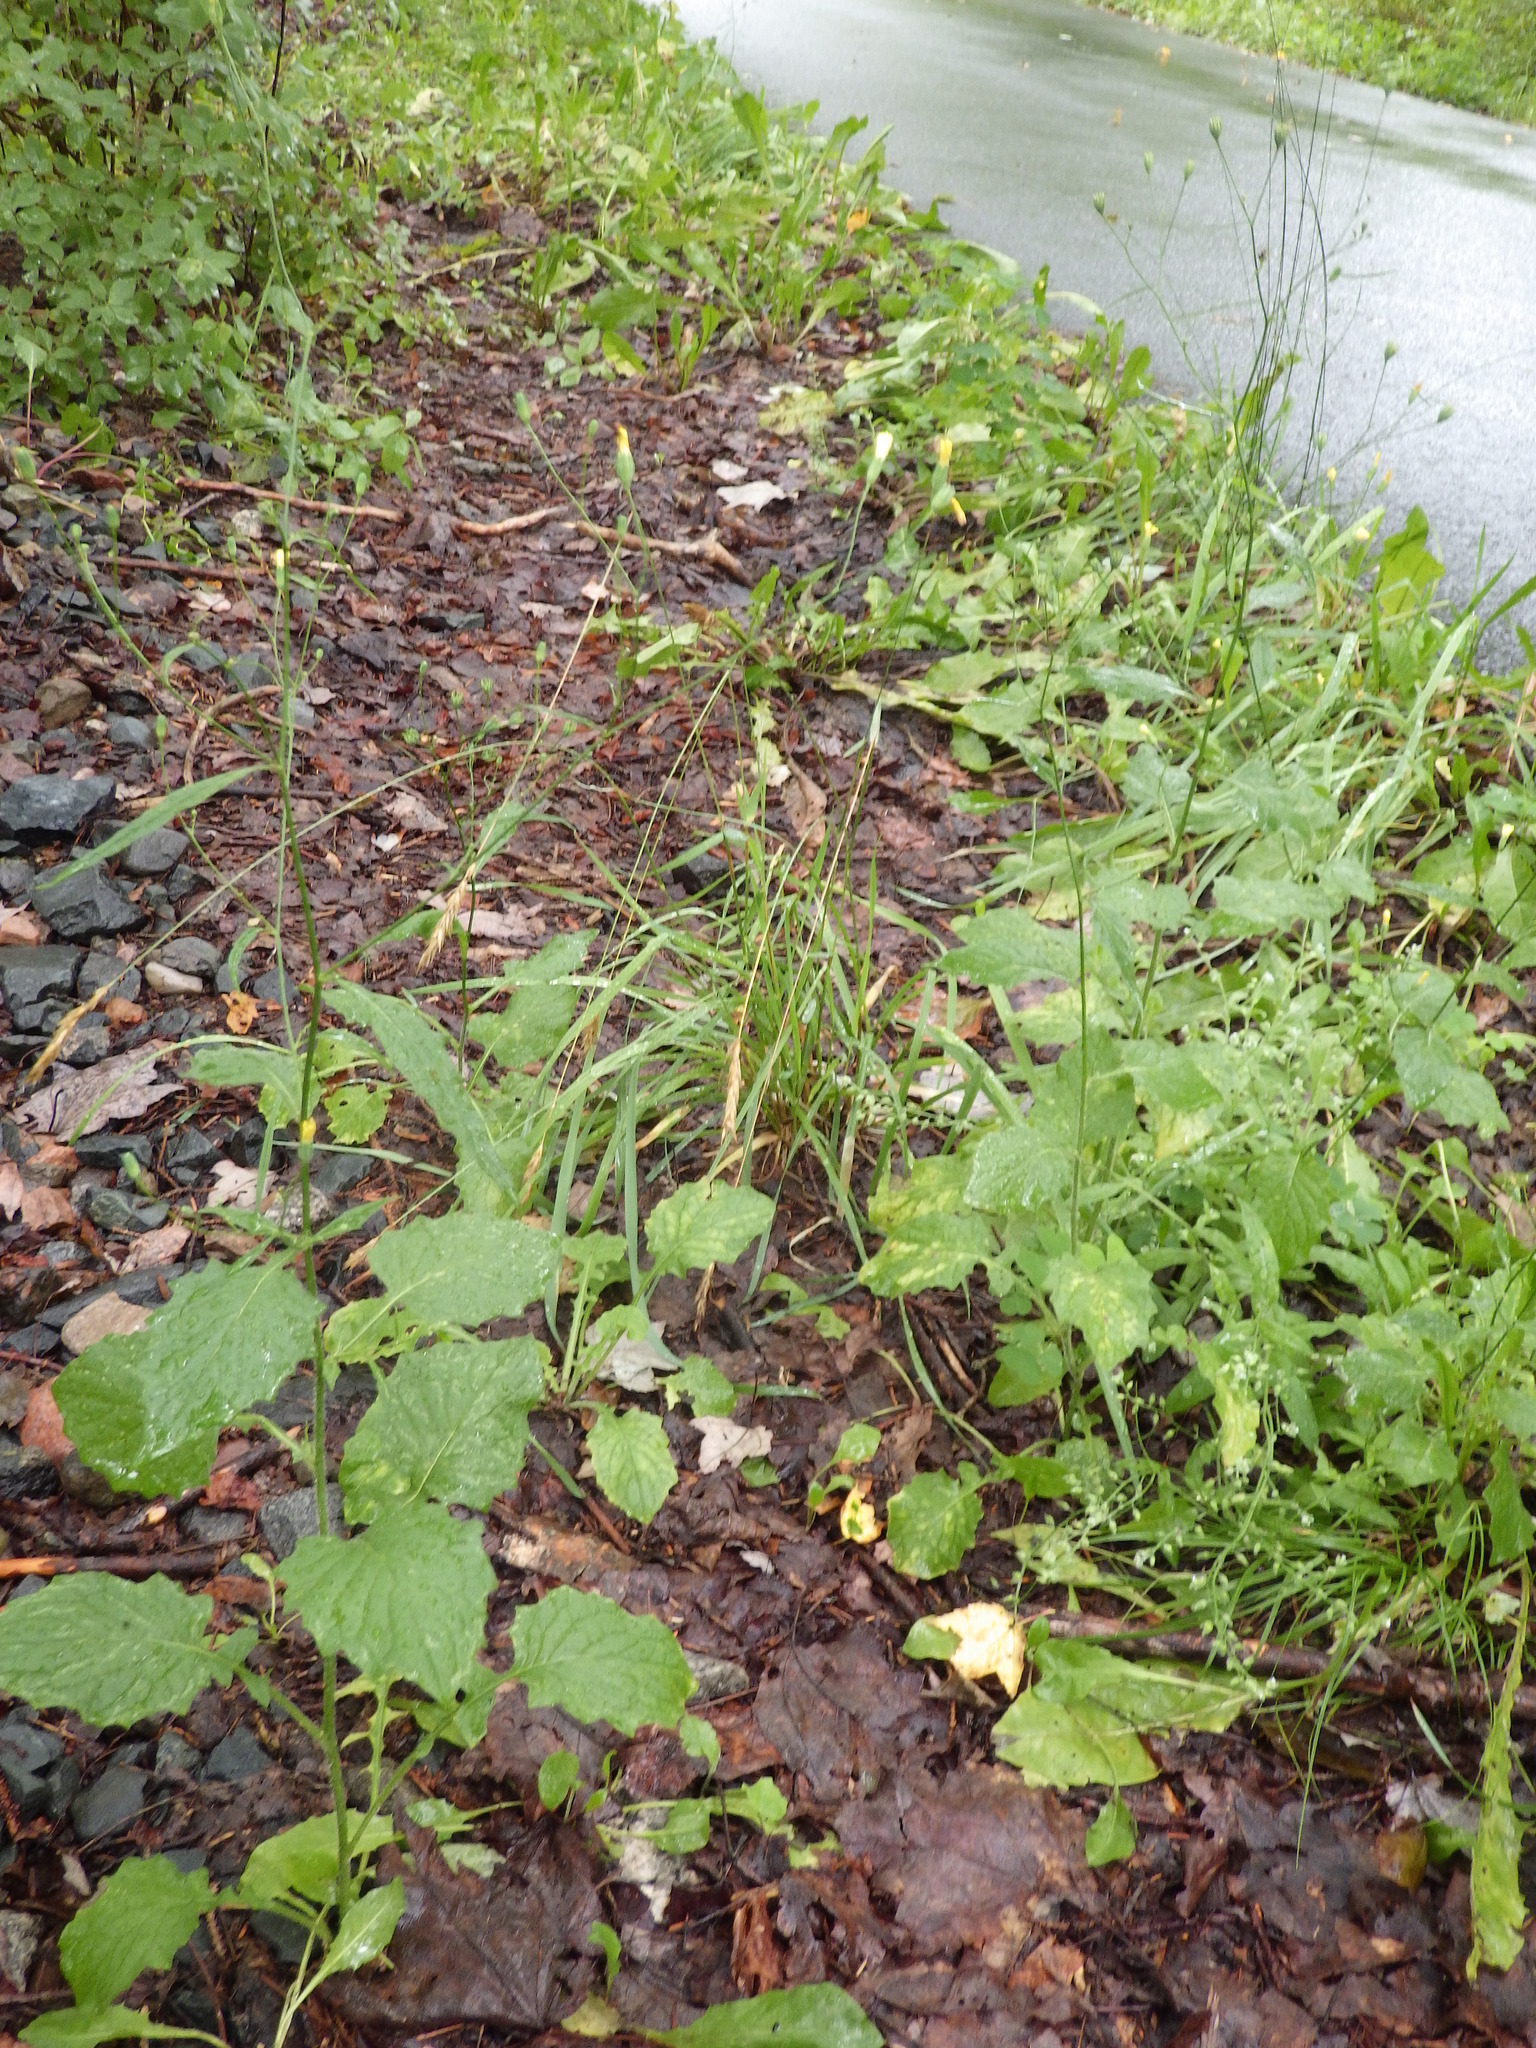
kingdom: Plantae
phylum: Tracheophyta
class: Magnoliopsida
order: Asterales
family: Asteraceae
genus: Lapsana
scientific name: Lapsana communis
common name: Nipplewort
